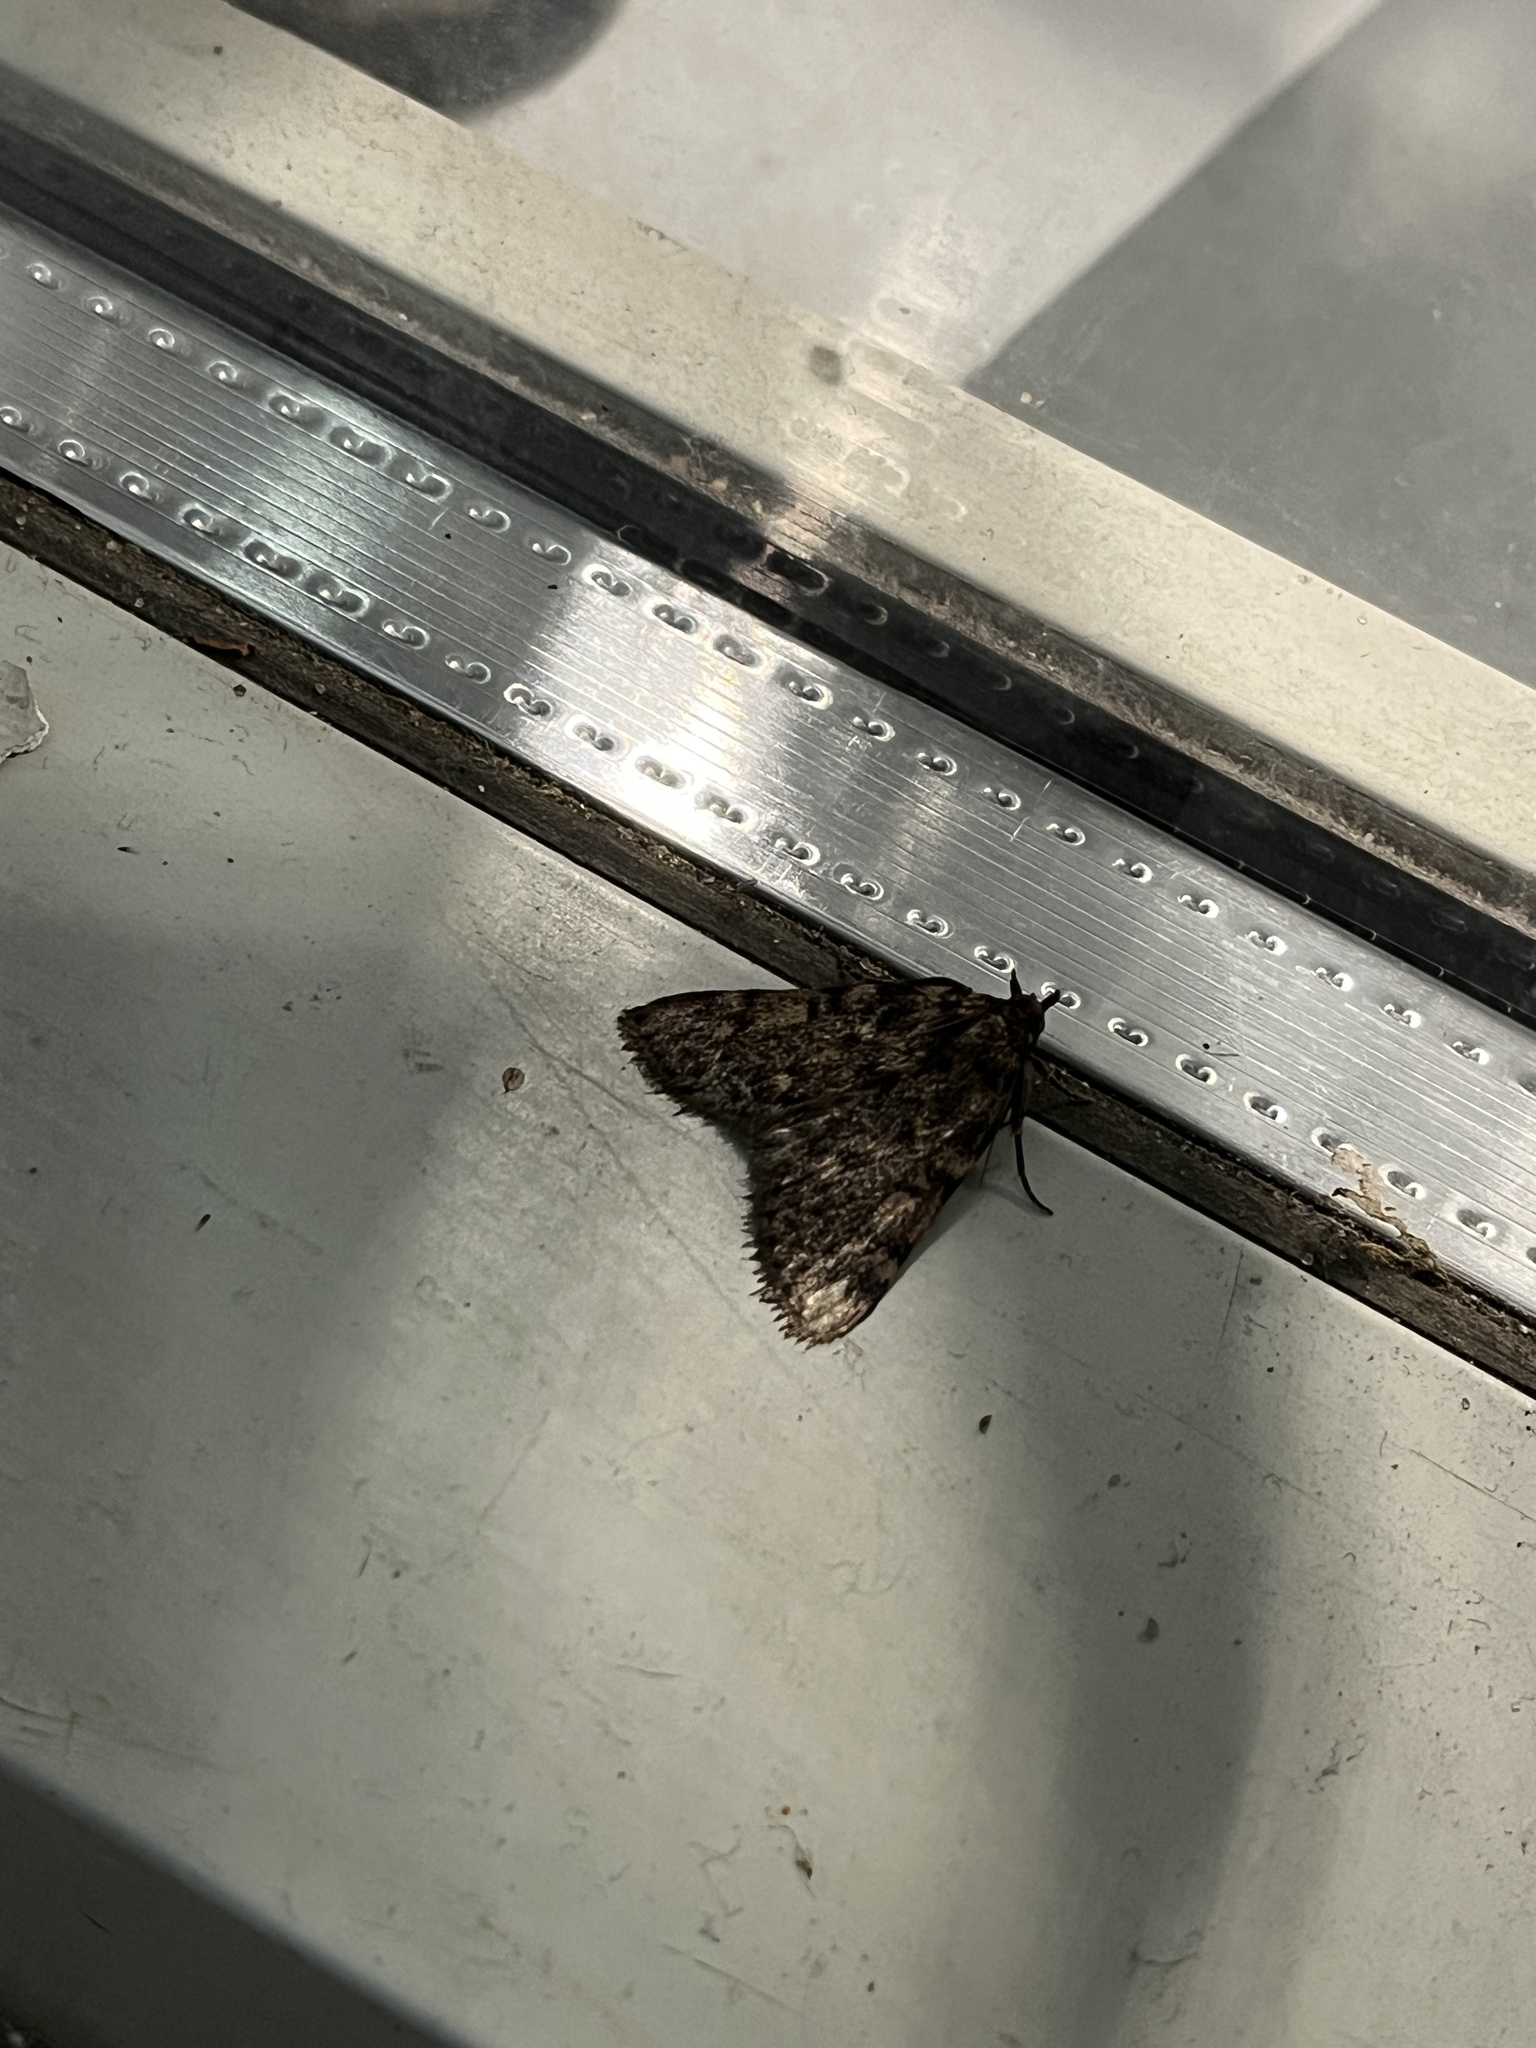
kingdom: Animalia
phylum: Arthropoda
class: Insecta
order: Lepidoptera
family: Pyralidae
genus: Aglossa
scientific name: Aglossa pinguinalis
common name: Large tabby
